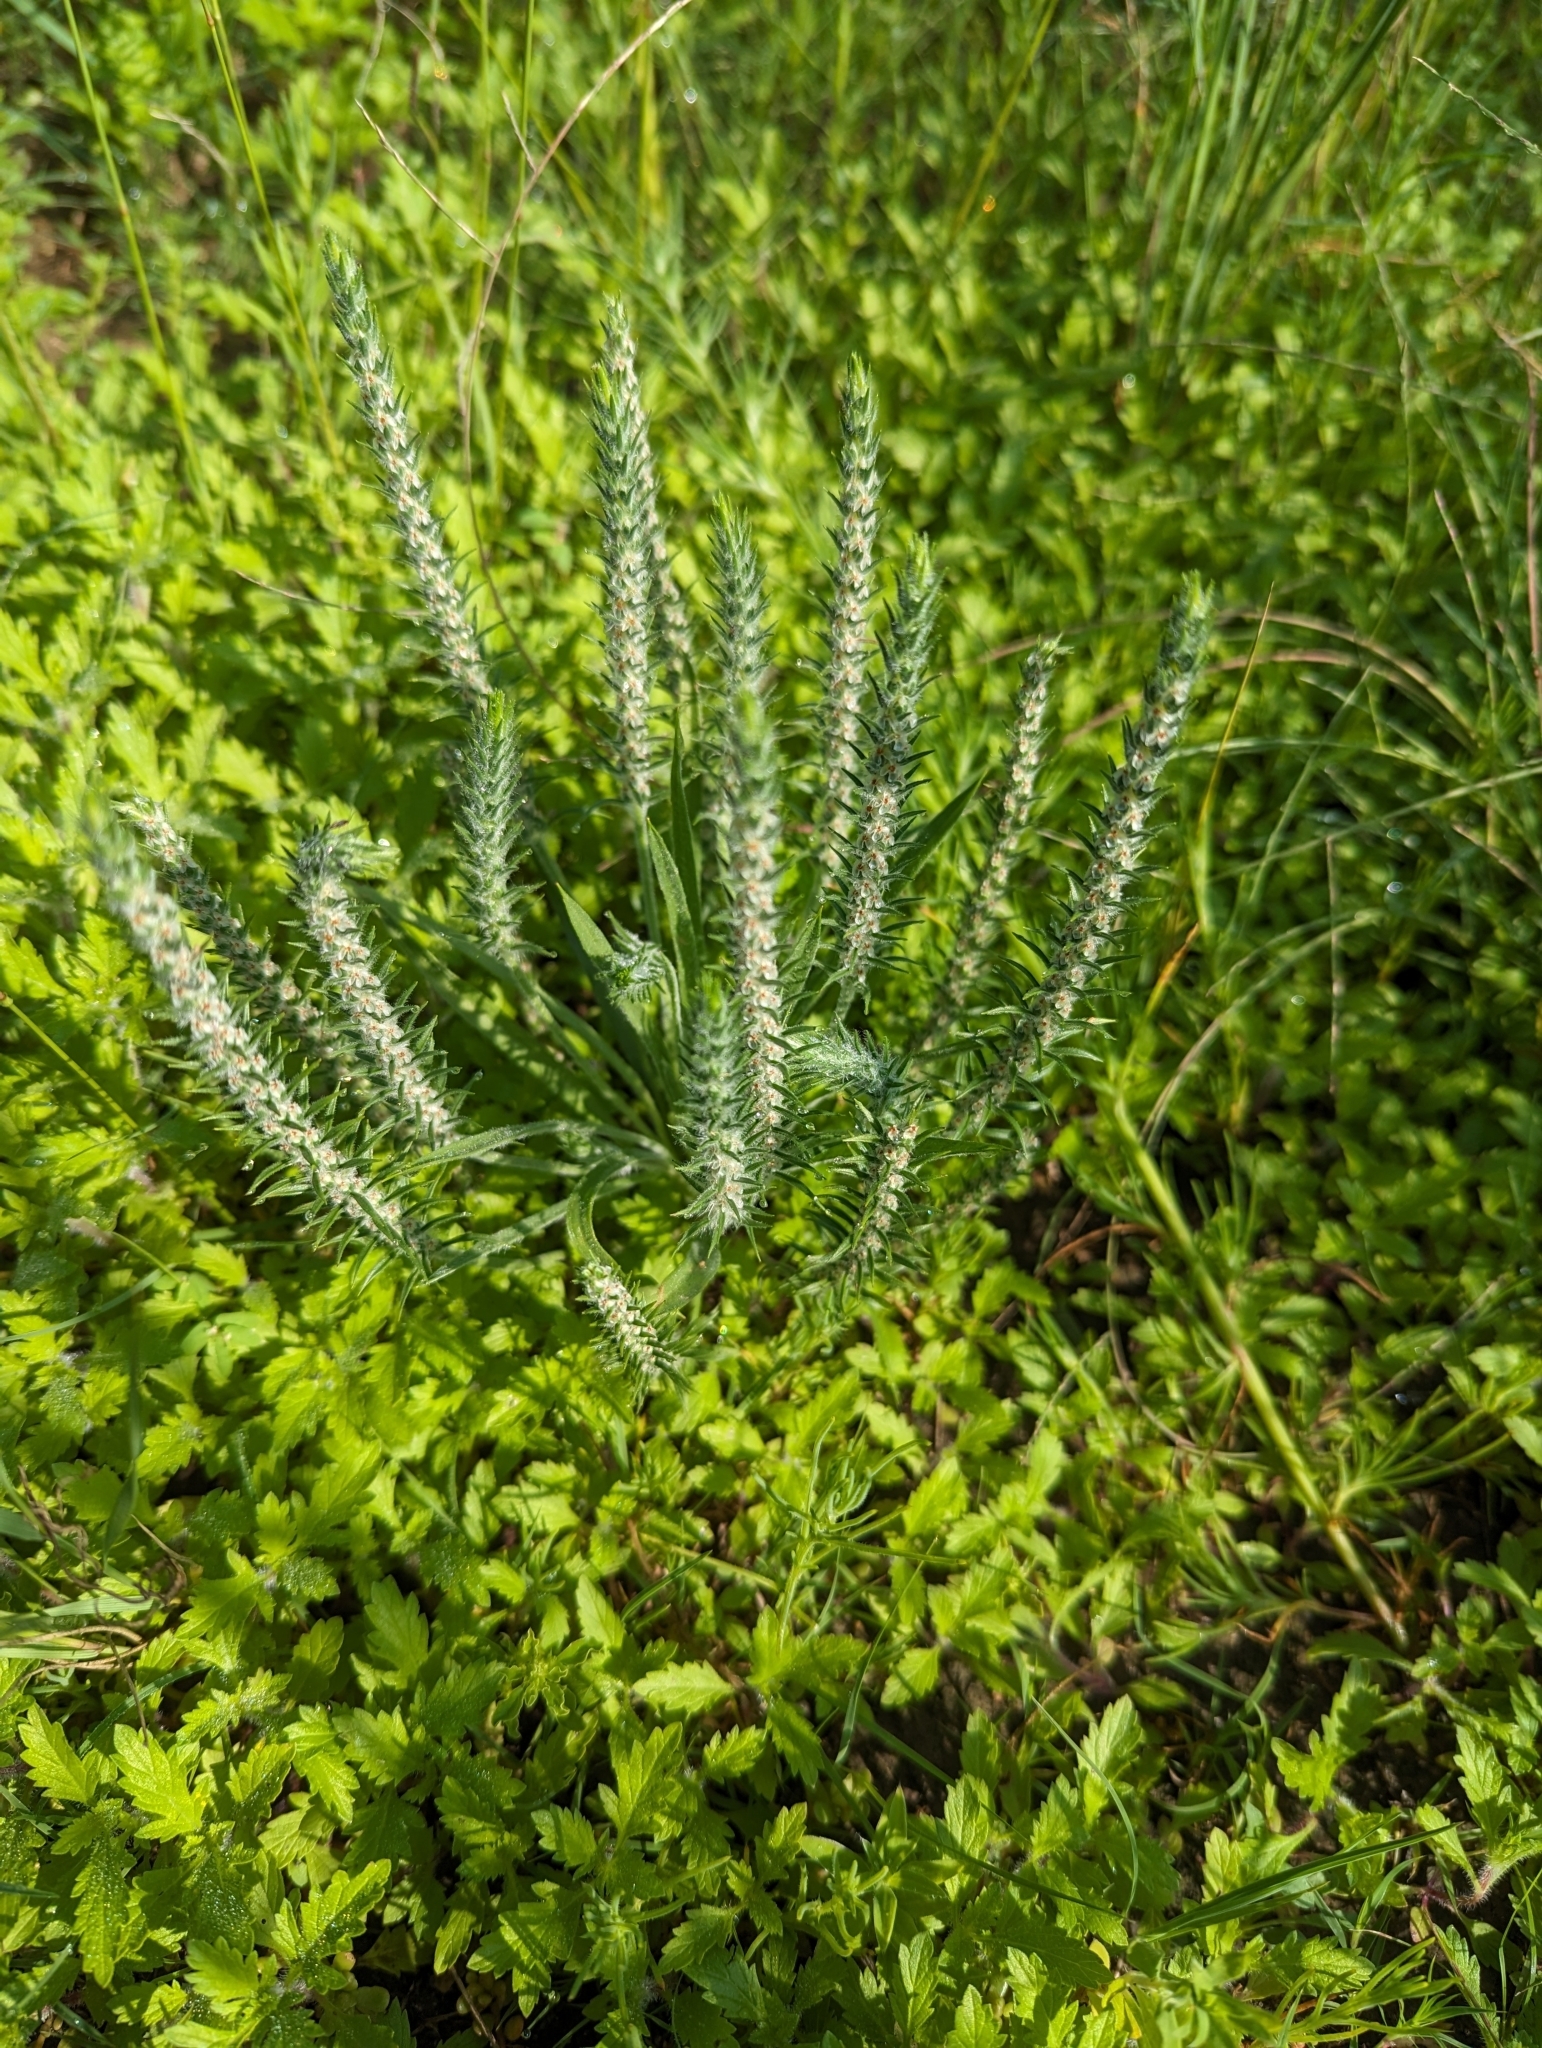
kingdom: Plantae
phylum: Tracheophyta
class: Magnoliopsida
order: Lamiales
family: Plantaginaceae
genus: Plantago
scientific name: Plantago patagonica
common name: Patagonia indian-wheat
